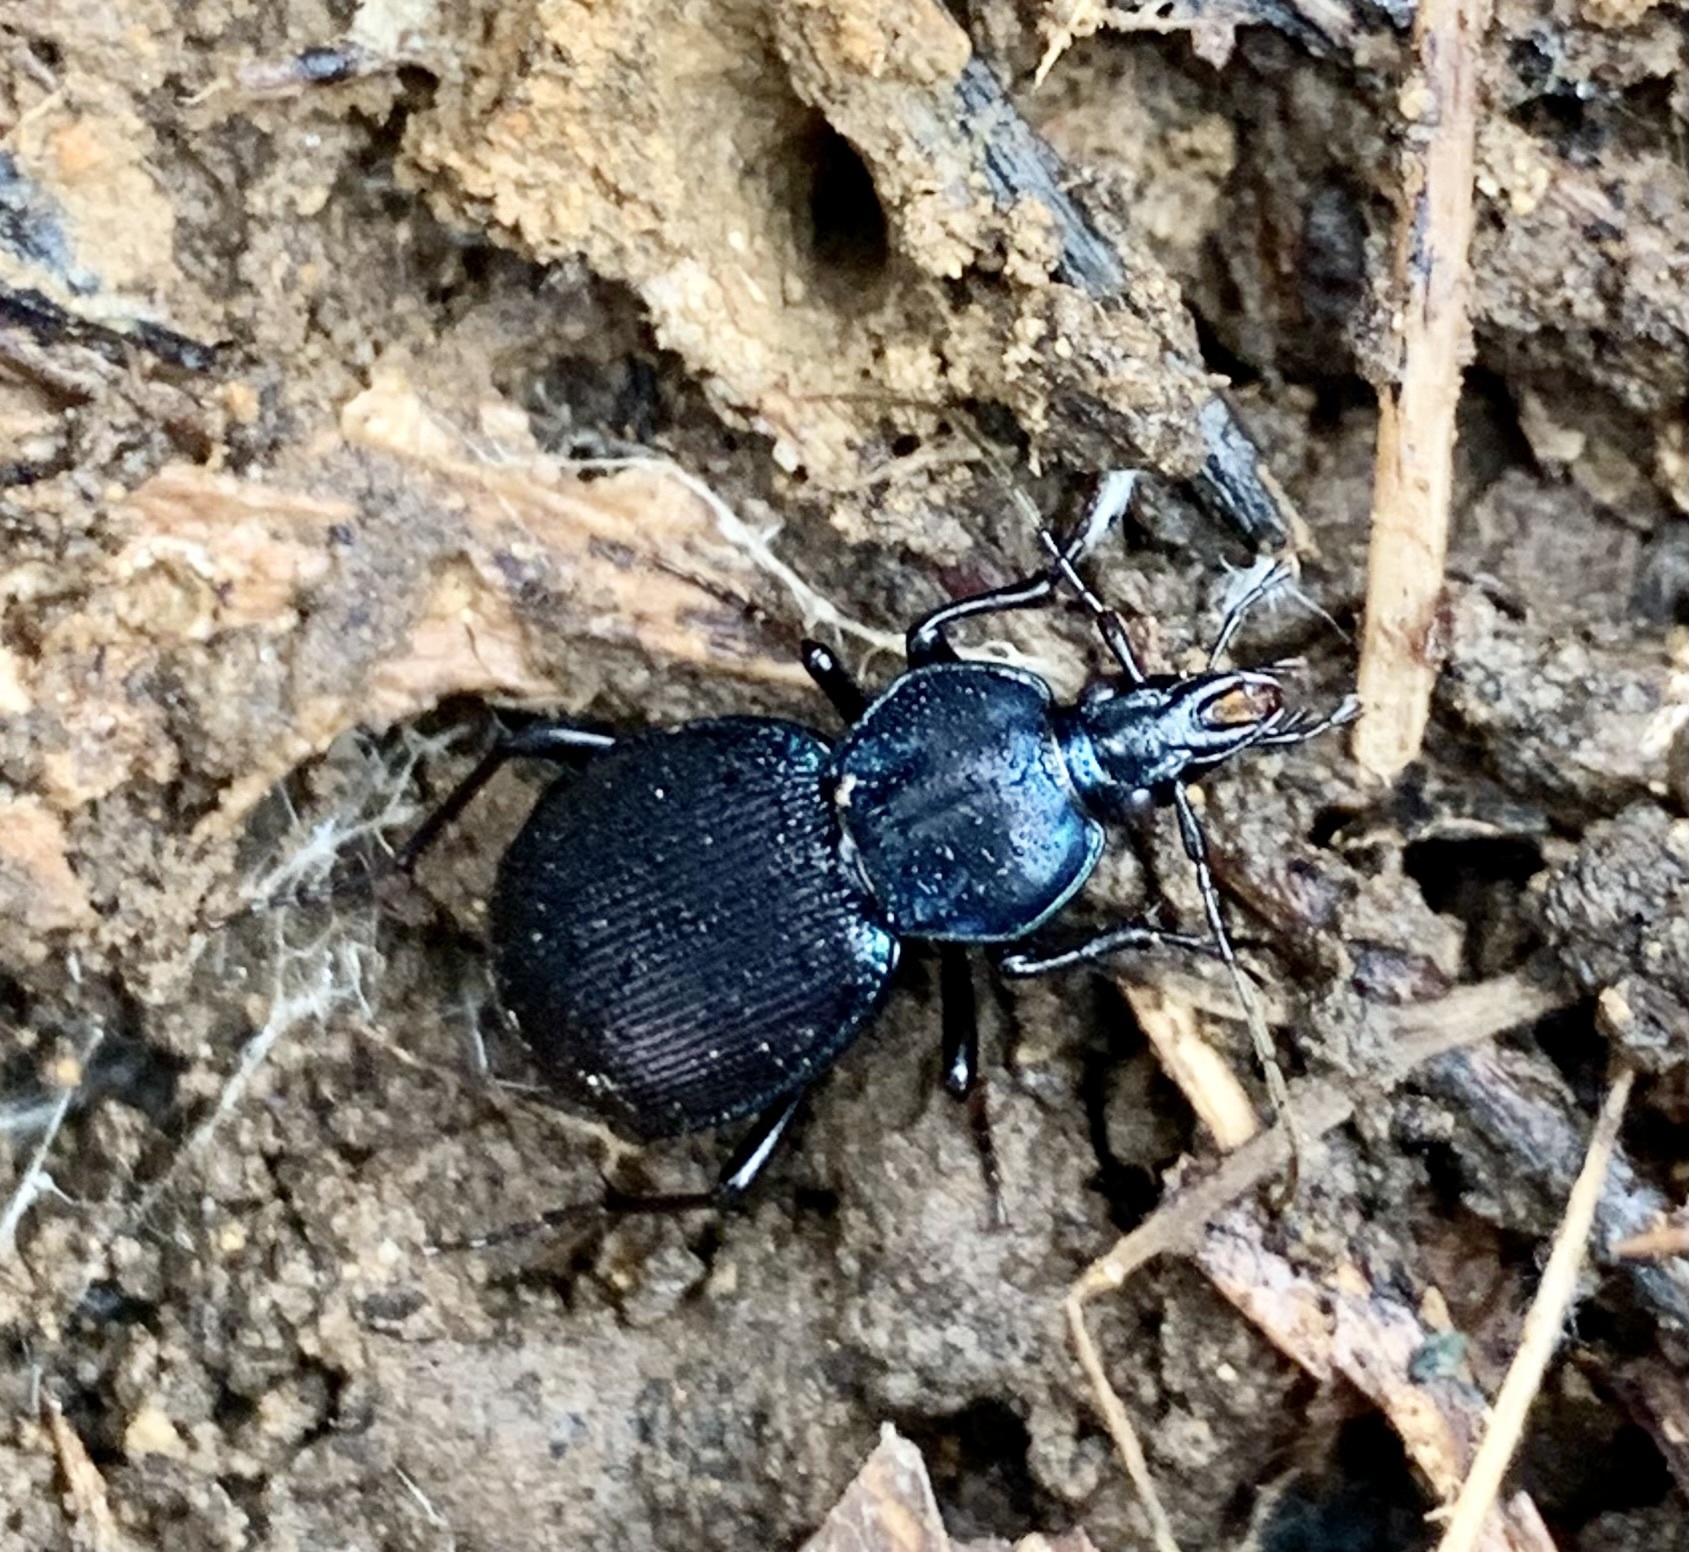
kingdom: Animalia
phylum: Arthropoda
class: Insecta
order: Coleoptera
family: Carabidae
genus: Sphaeroderus
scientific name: Sphaeroderus stenostomus
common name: Small snail-eating ground beetle
